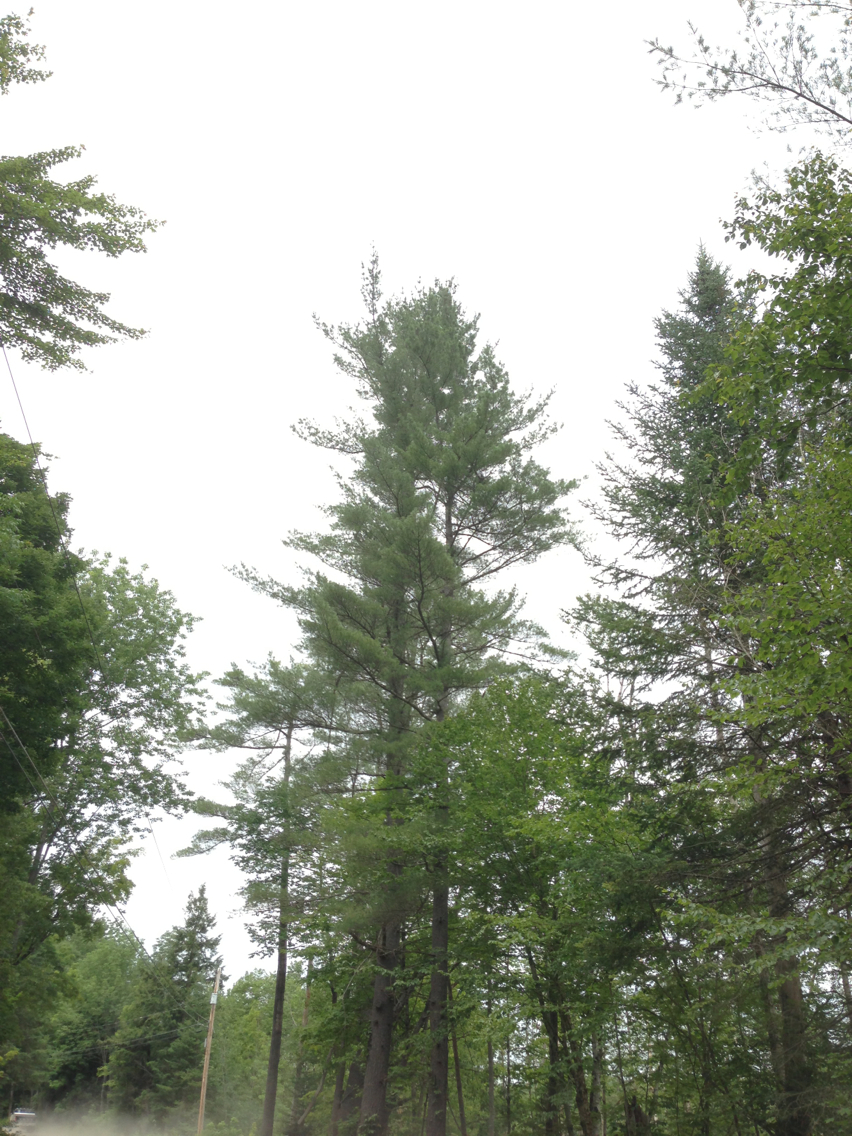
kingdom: Plantae
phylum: Tracheophyta
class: Pinopsida
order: Pinales
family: Pinaceae
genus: Pinus
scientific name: Pinus strobus
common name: Weymouth pine
